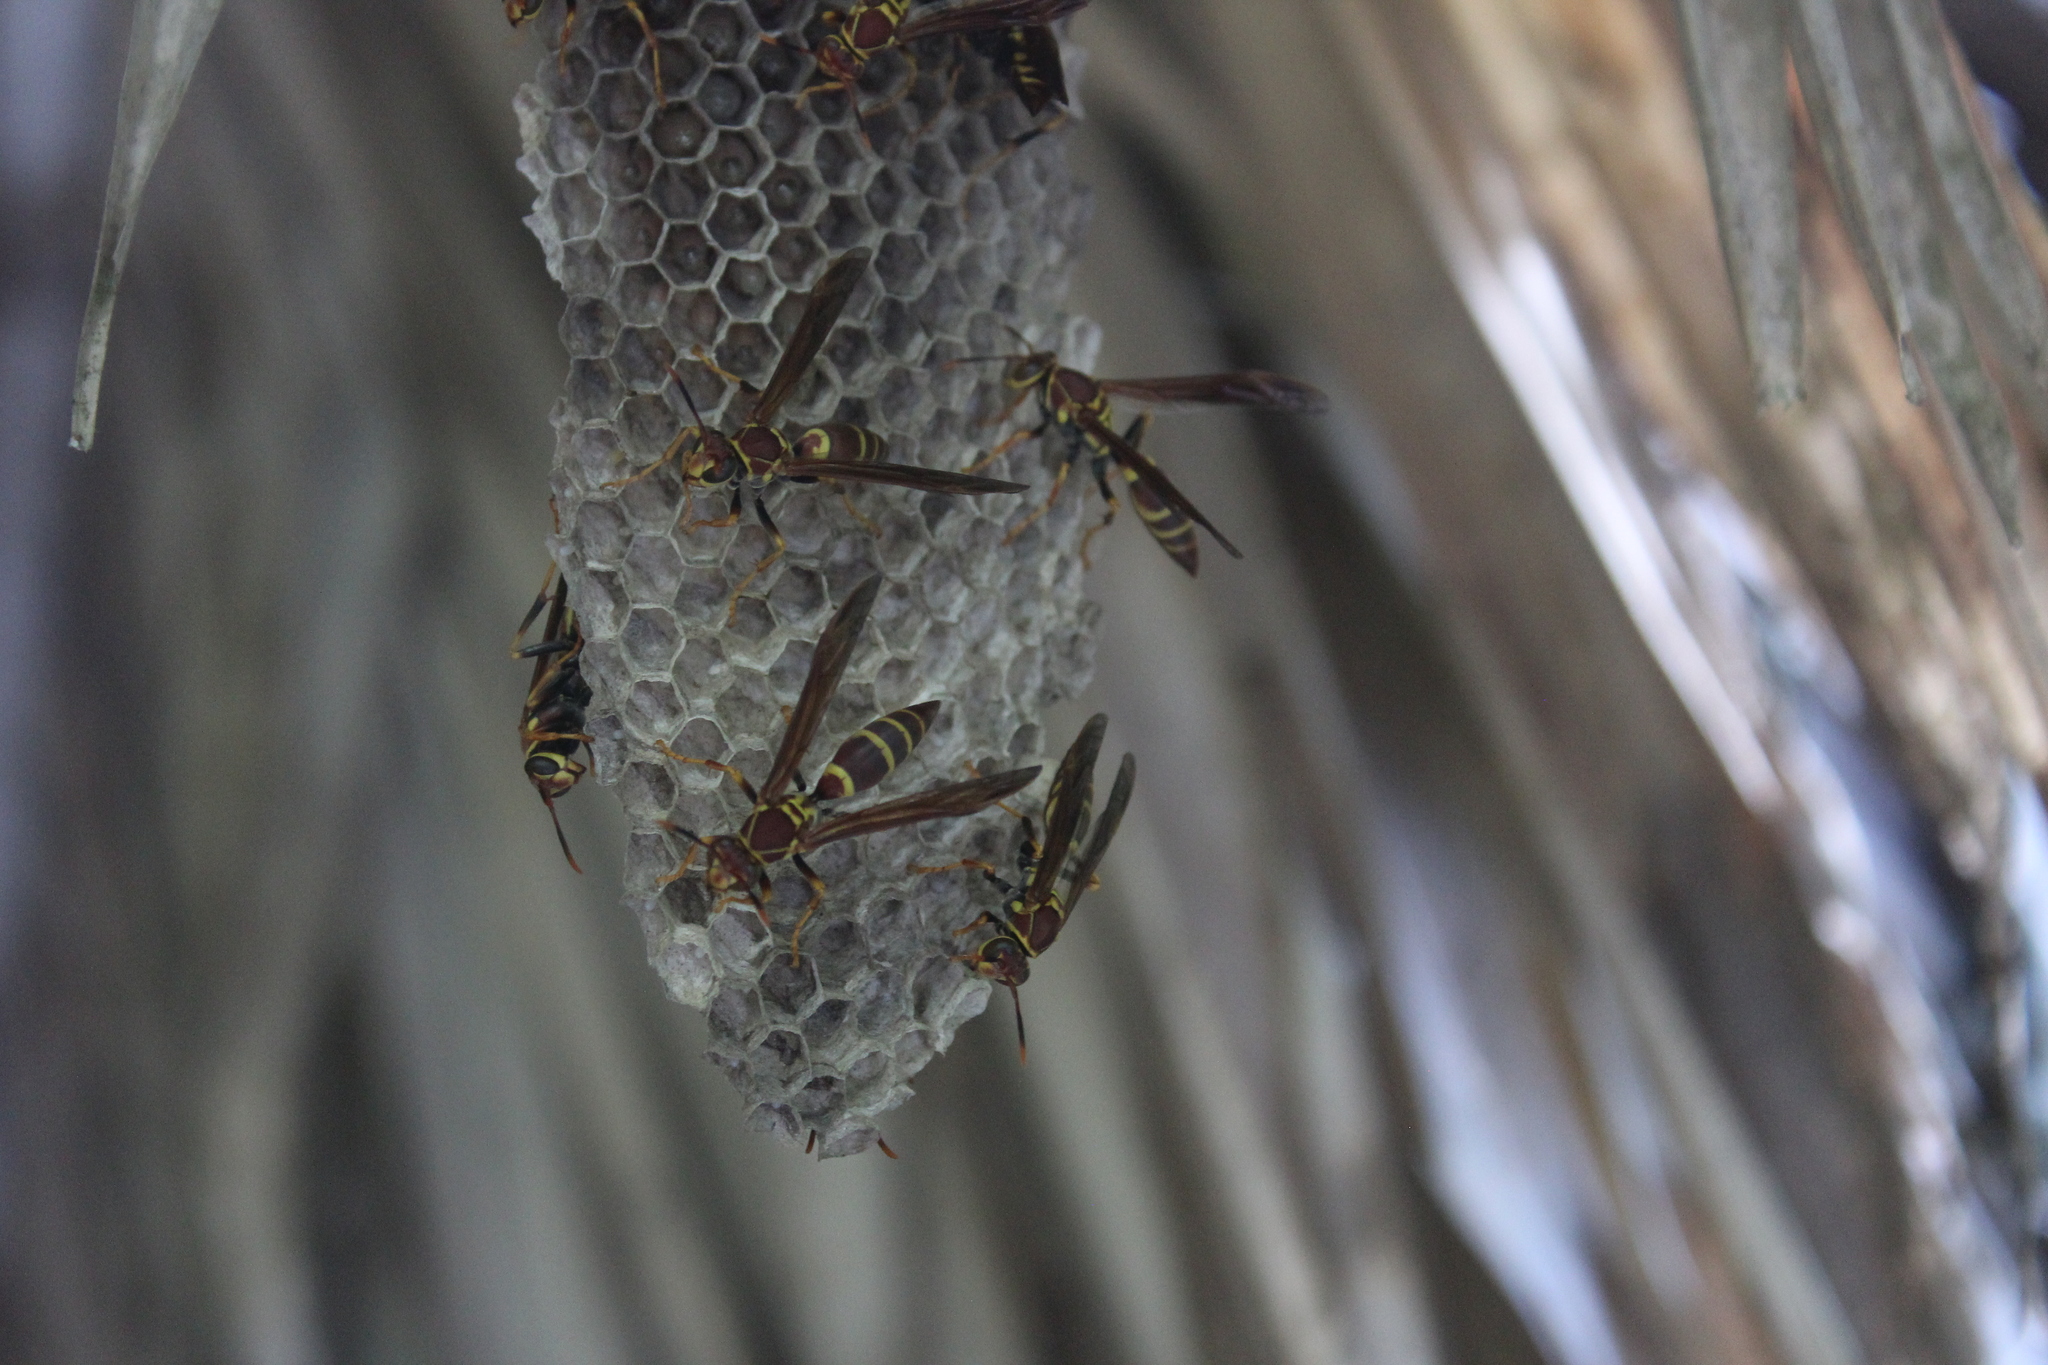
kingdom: Animalia
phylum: Arthropoda
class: Insecta
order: Hymenoptera
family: Eumenidae
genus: Polistes
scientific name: Polistes instabilis
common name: Unstable paper wasp
